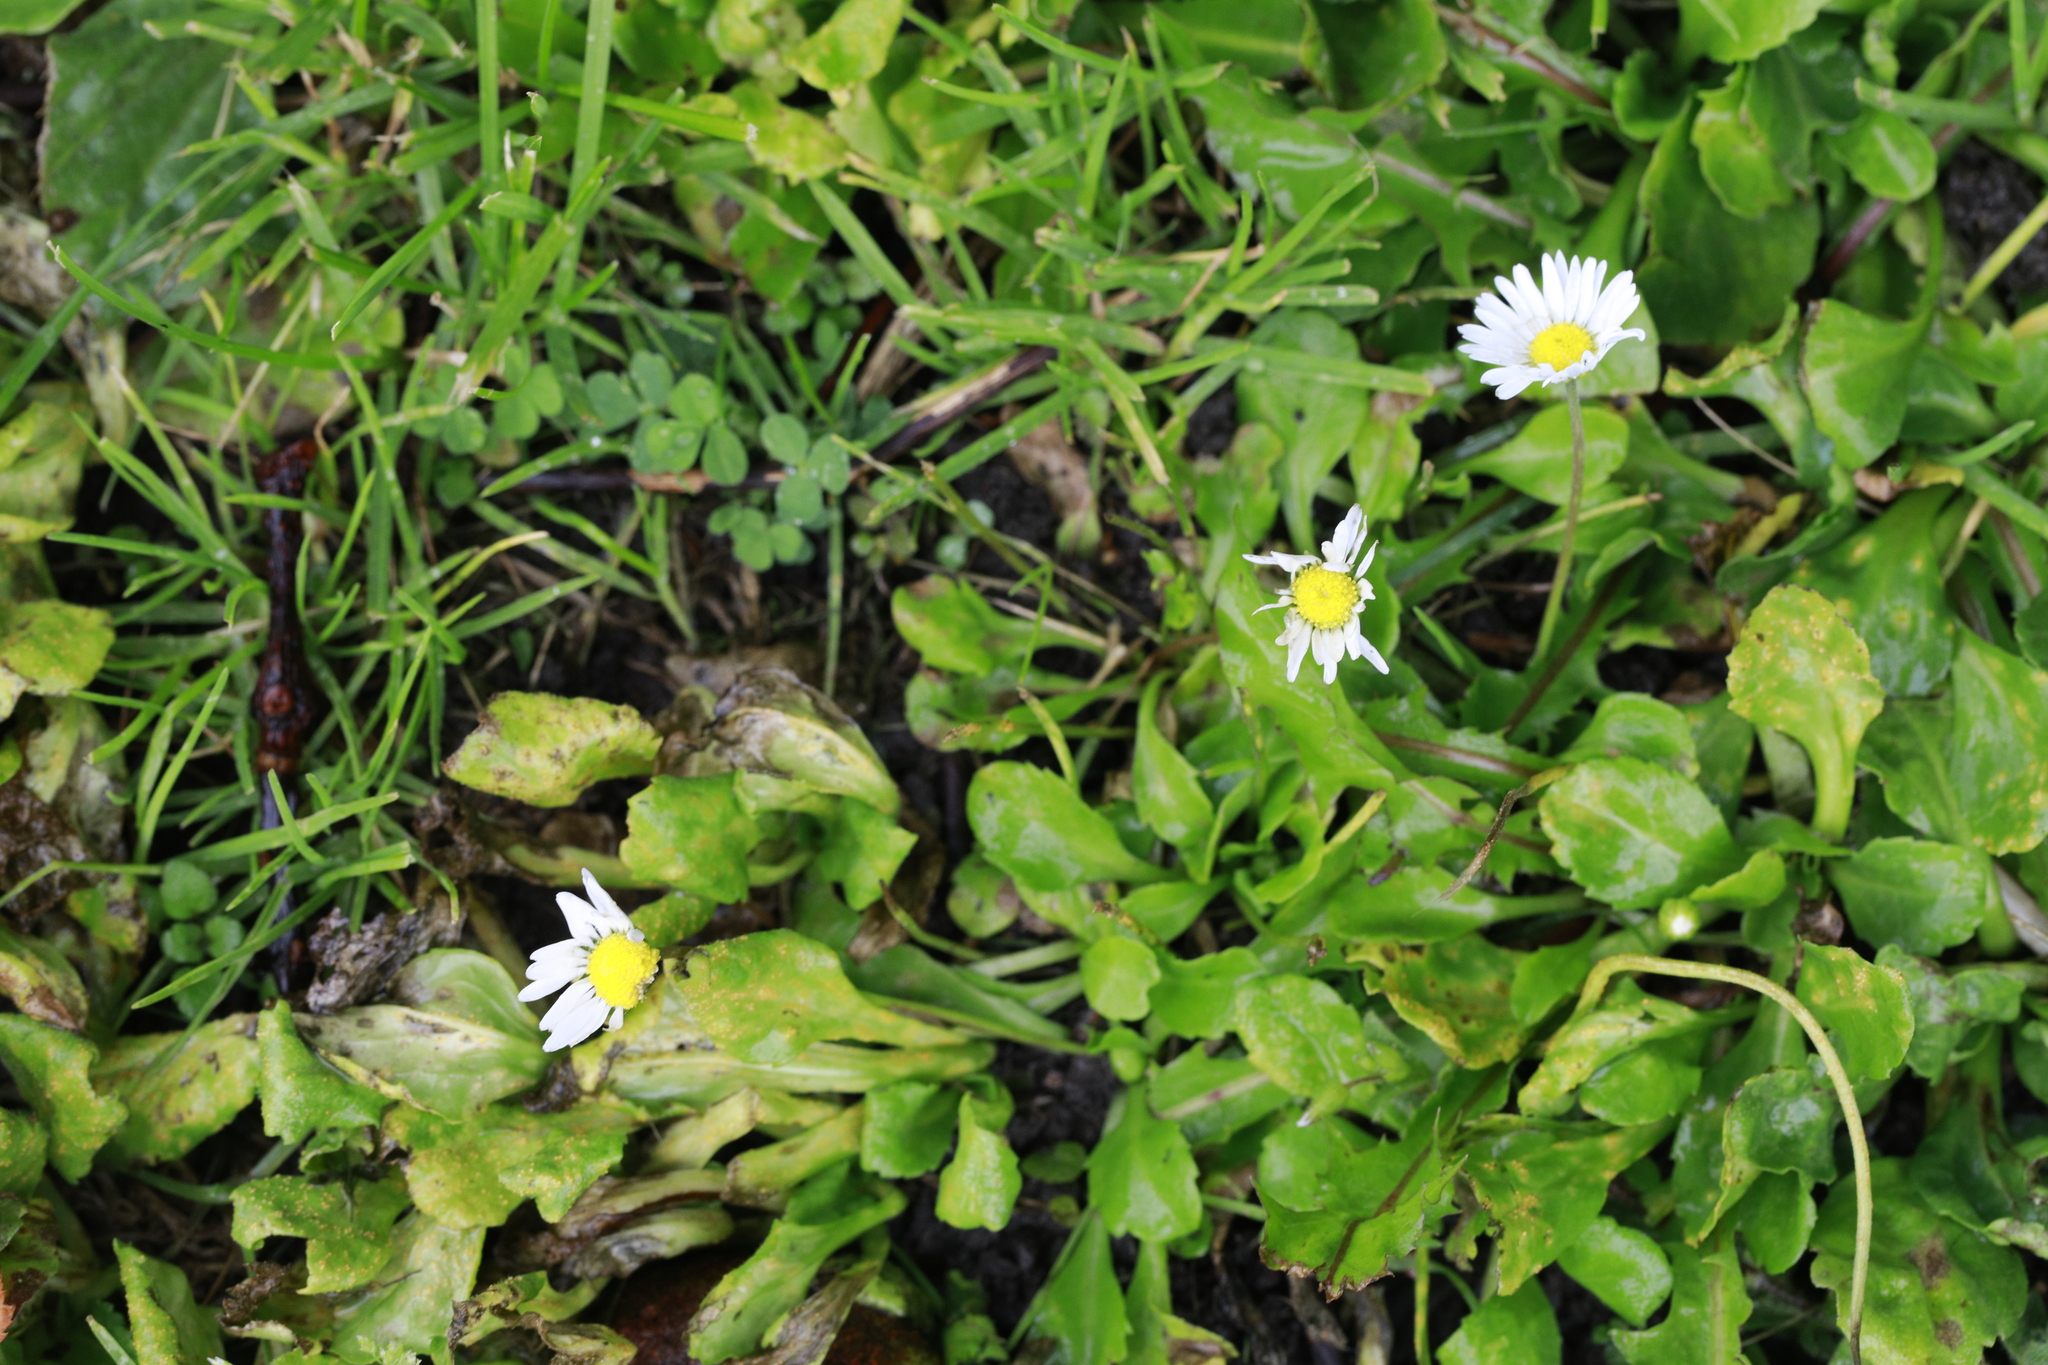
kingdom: Plantae
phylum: Tracheophyta
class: Magnoliopsida
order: Asterales
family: Asteraceae
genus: Bellis
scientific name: Bellis perennis
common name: Lawndaisy
